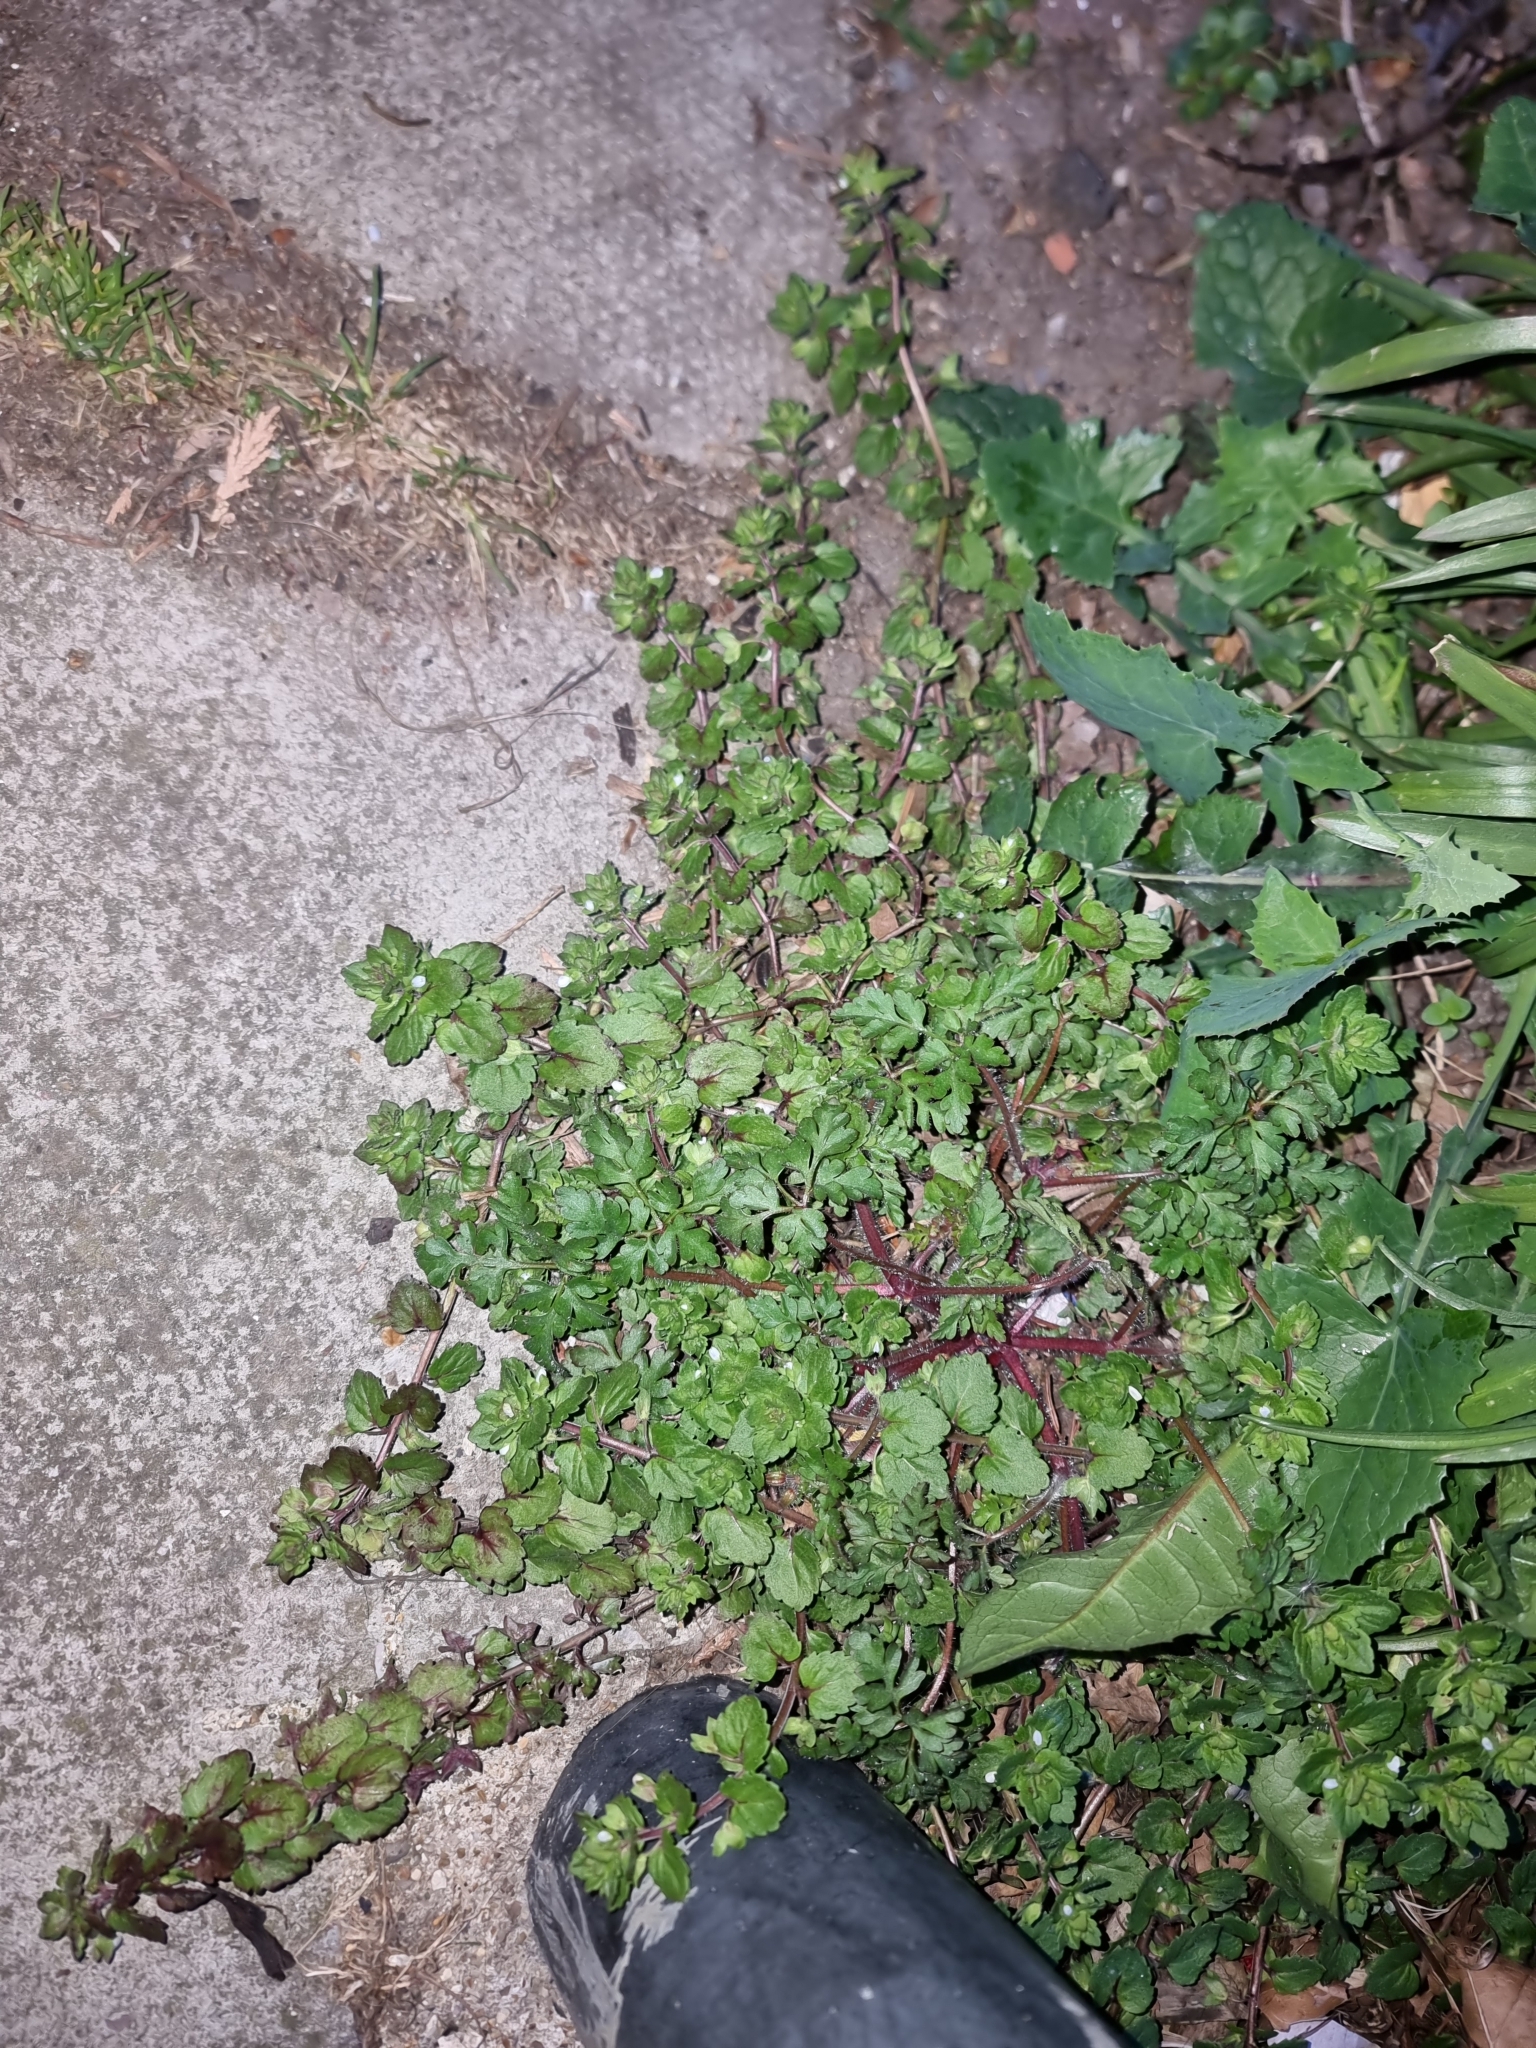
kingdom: Plantae
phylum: Tracheophyta
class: Magnoliopsida
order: Lamiales
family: Plantaginaceae
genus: Veronica
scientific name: Veronica agrestis
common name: Green field-speedwell
